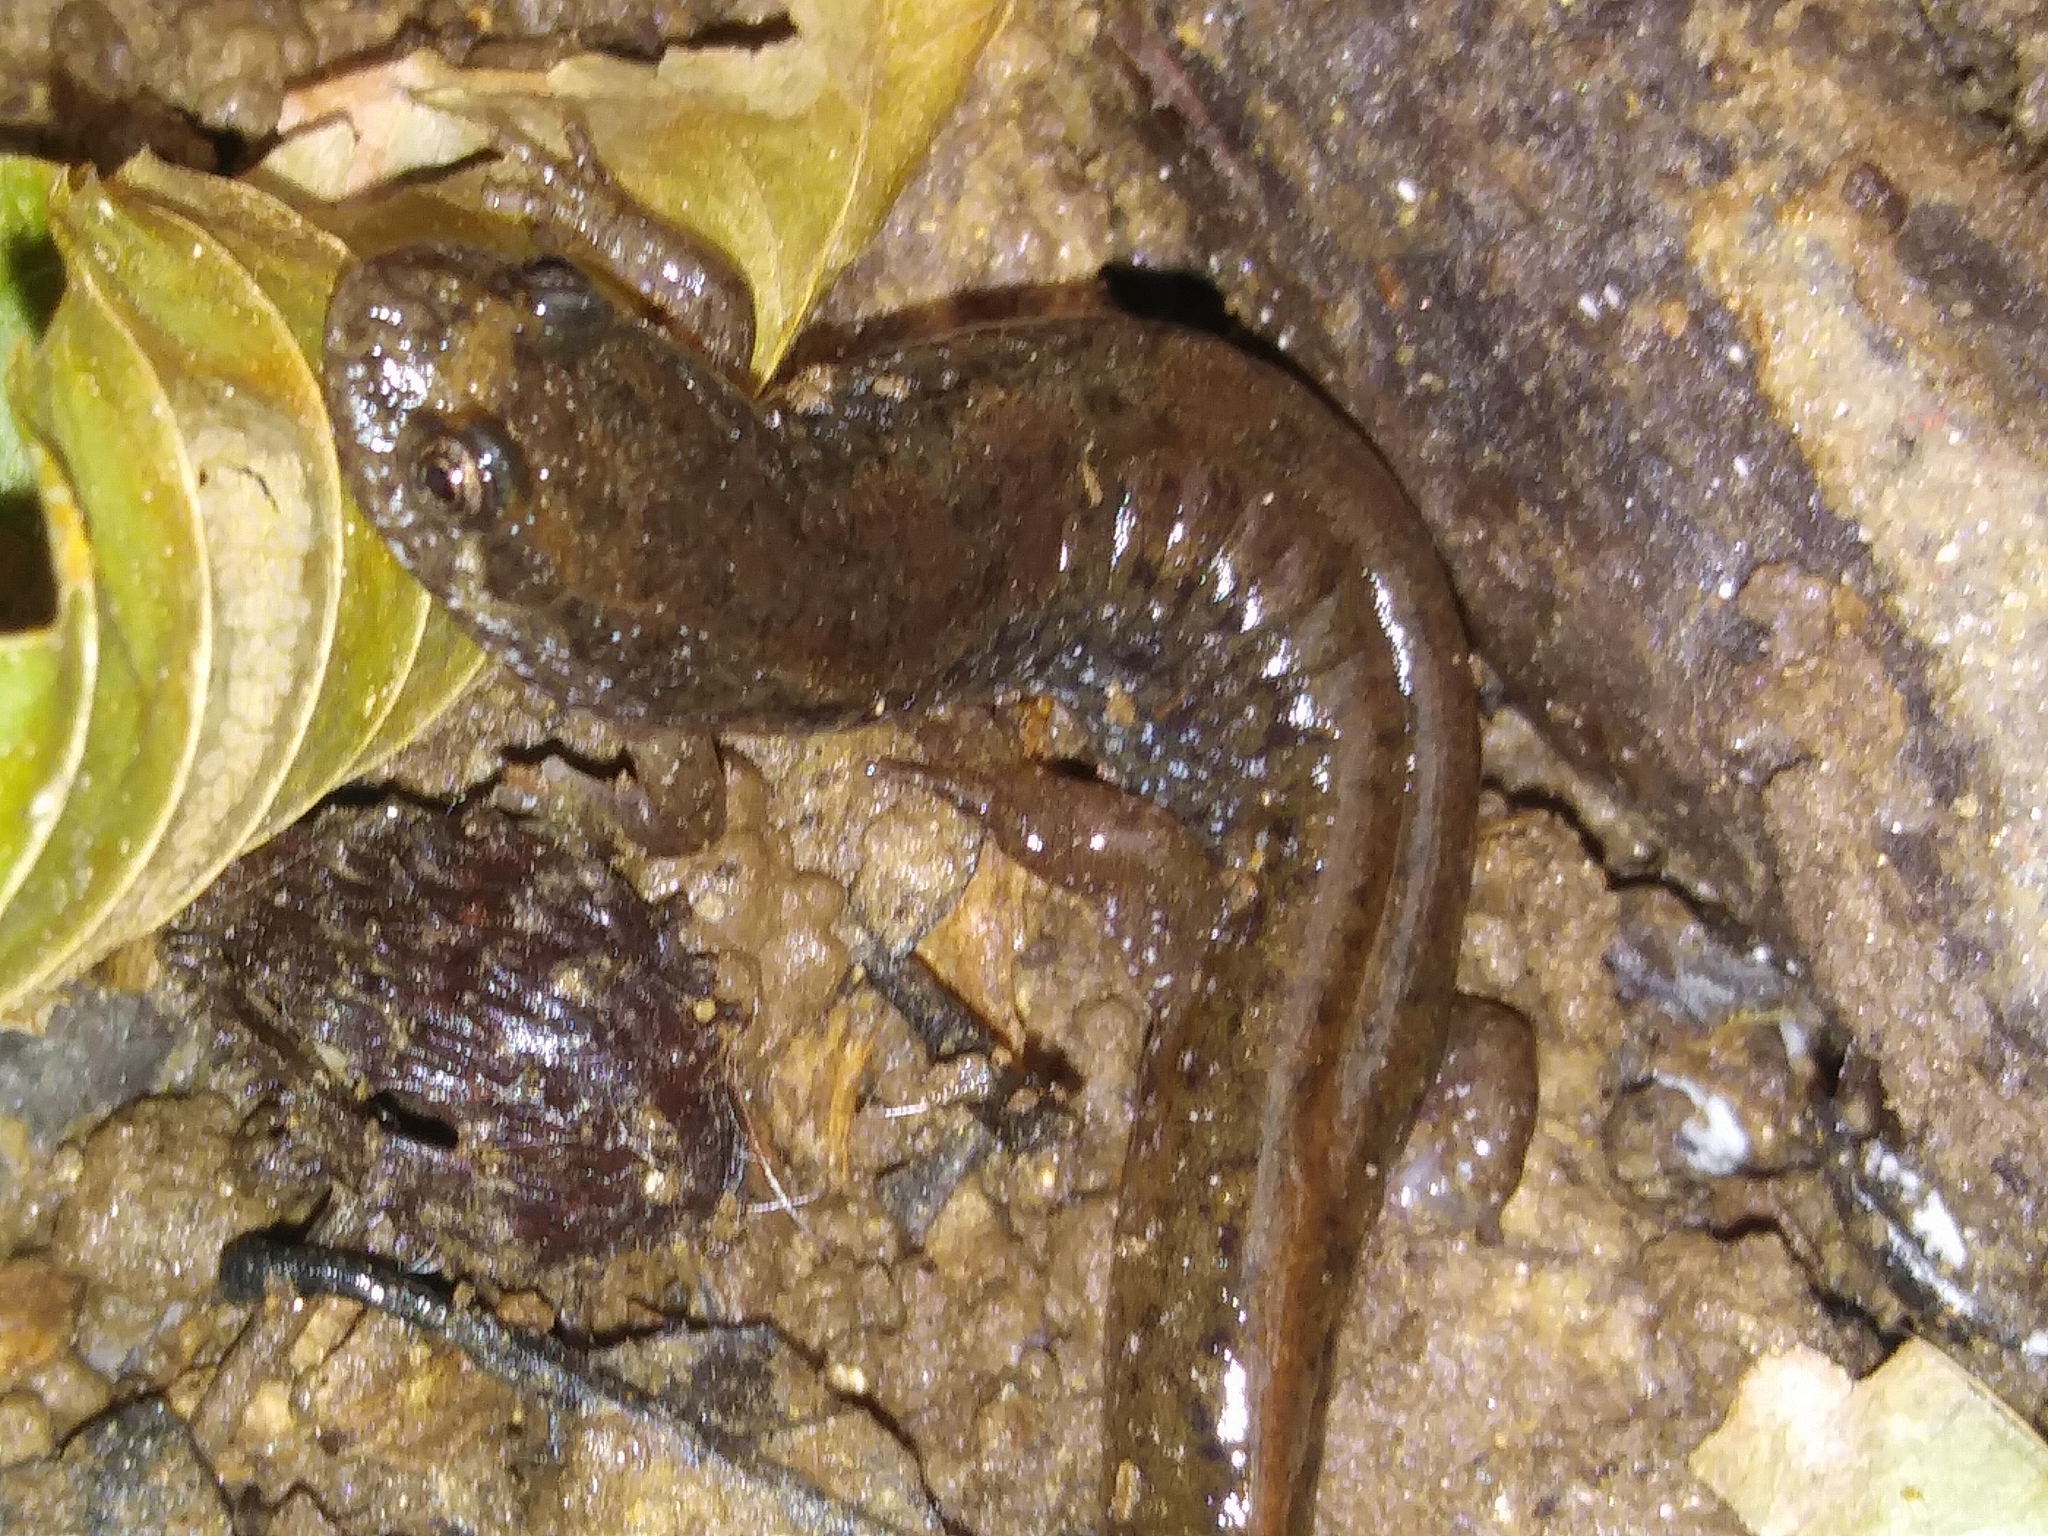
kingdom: Animalia
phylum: Chordata
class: Amphibia
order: Caudata
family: Plethodontidae
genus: Desmognathus
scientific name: Desmognathus fuscus
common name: Northern dusky salamander
